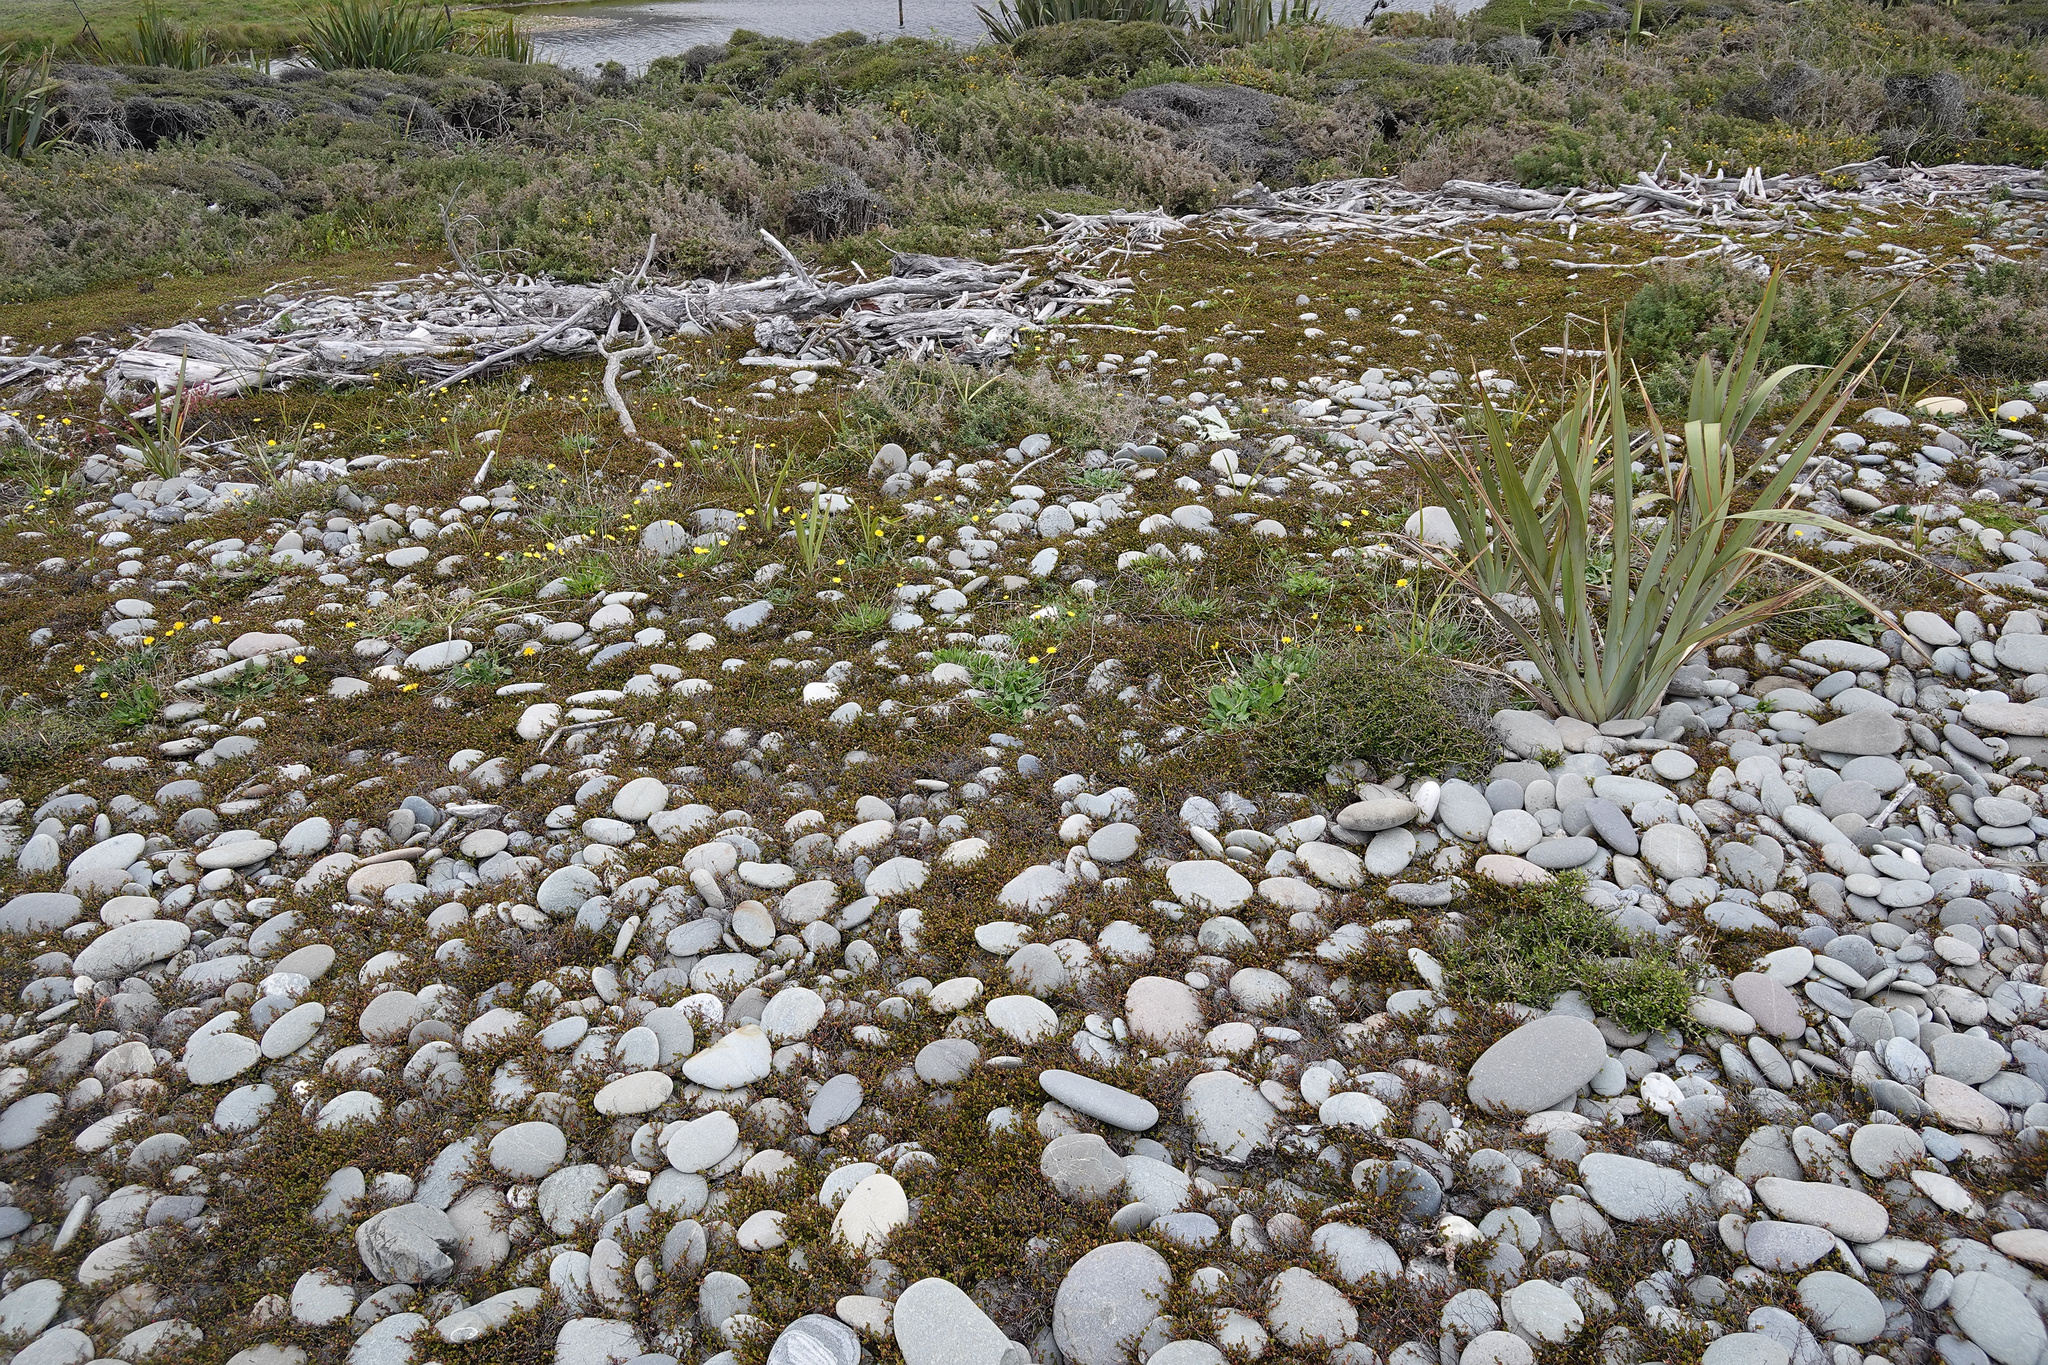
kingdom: Plantae
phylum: Tracheophyta
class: Magnoliopsida
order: Caryophyllales
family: Polygonaceae
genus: Muehlenbeckia
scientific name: Muehlenbeckia axillaris
